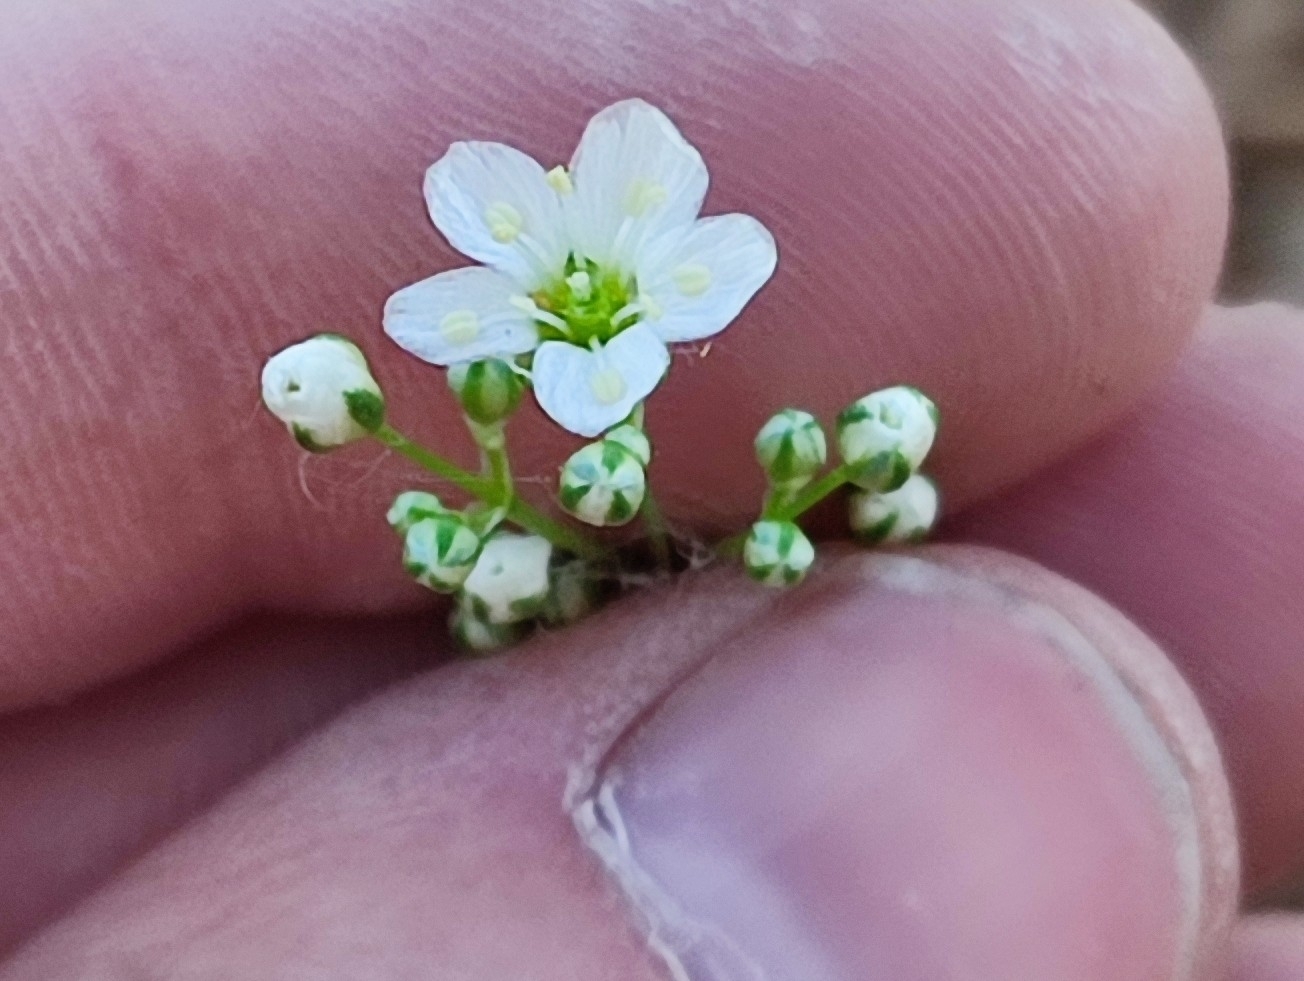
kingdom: Plantae
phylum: Tracheophyta
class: Magnoliopsida
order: Caryophyllales
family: Caryophyllaceae
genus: Eremogone
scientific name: Eremogone saxatilis
